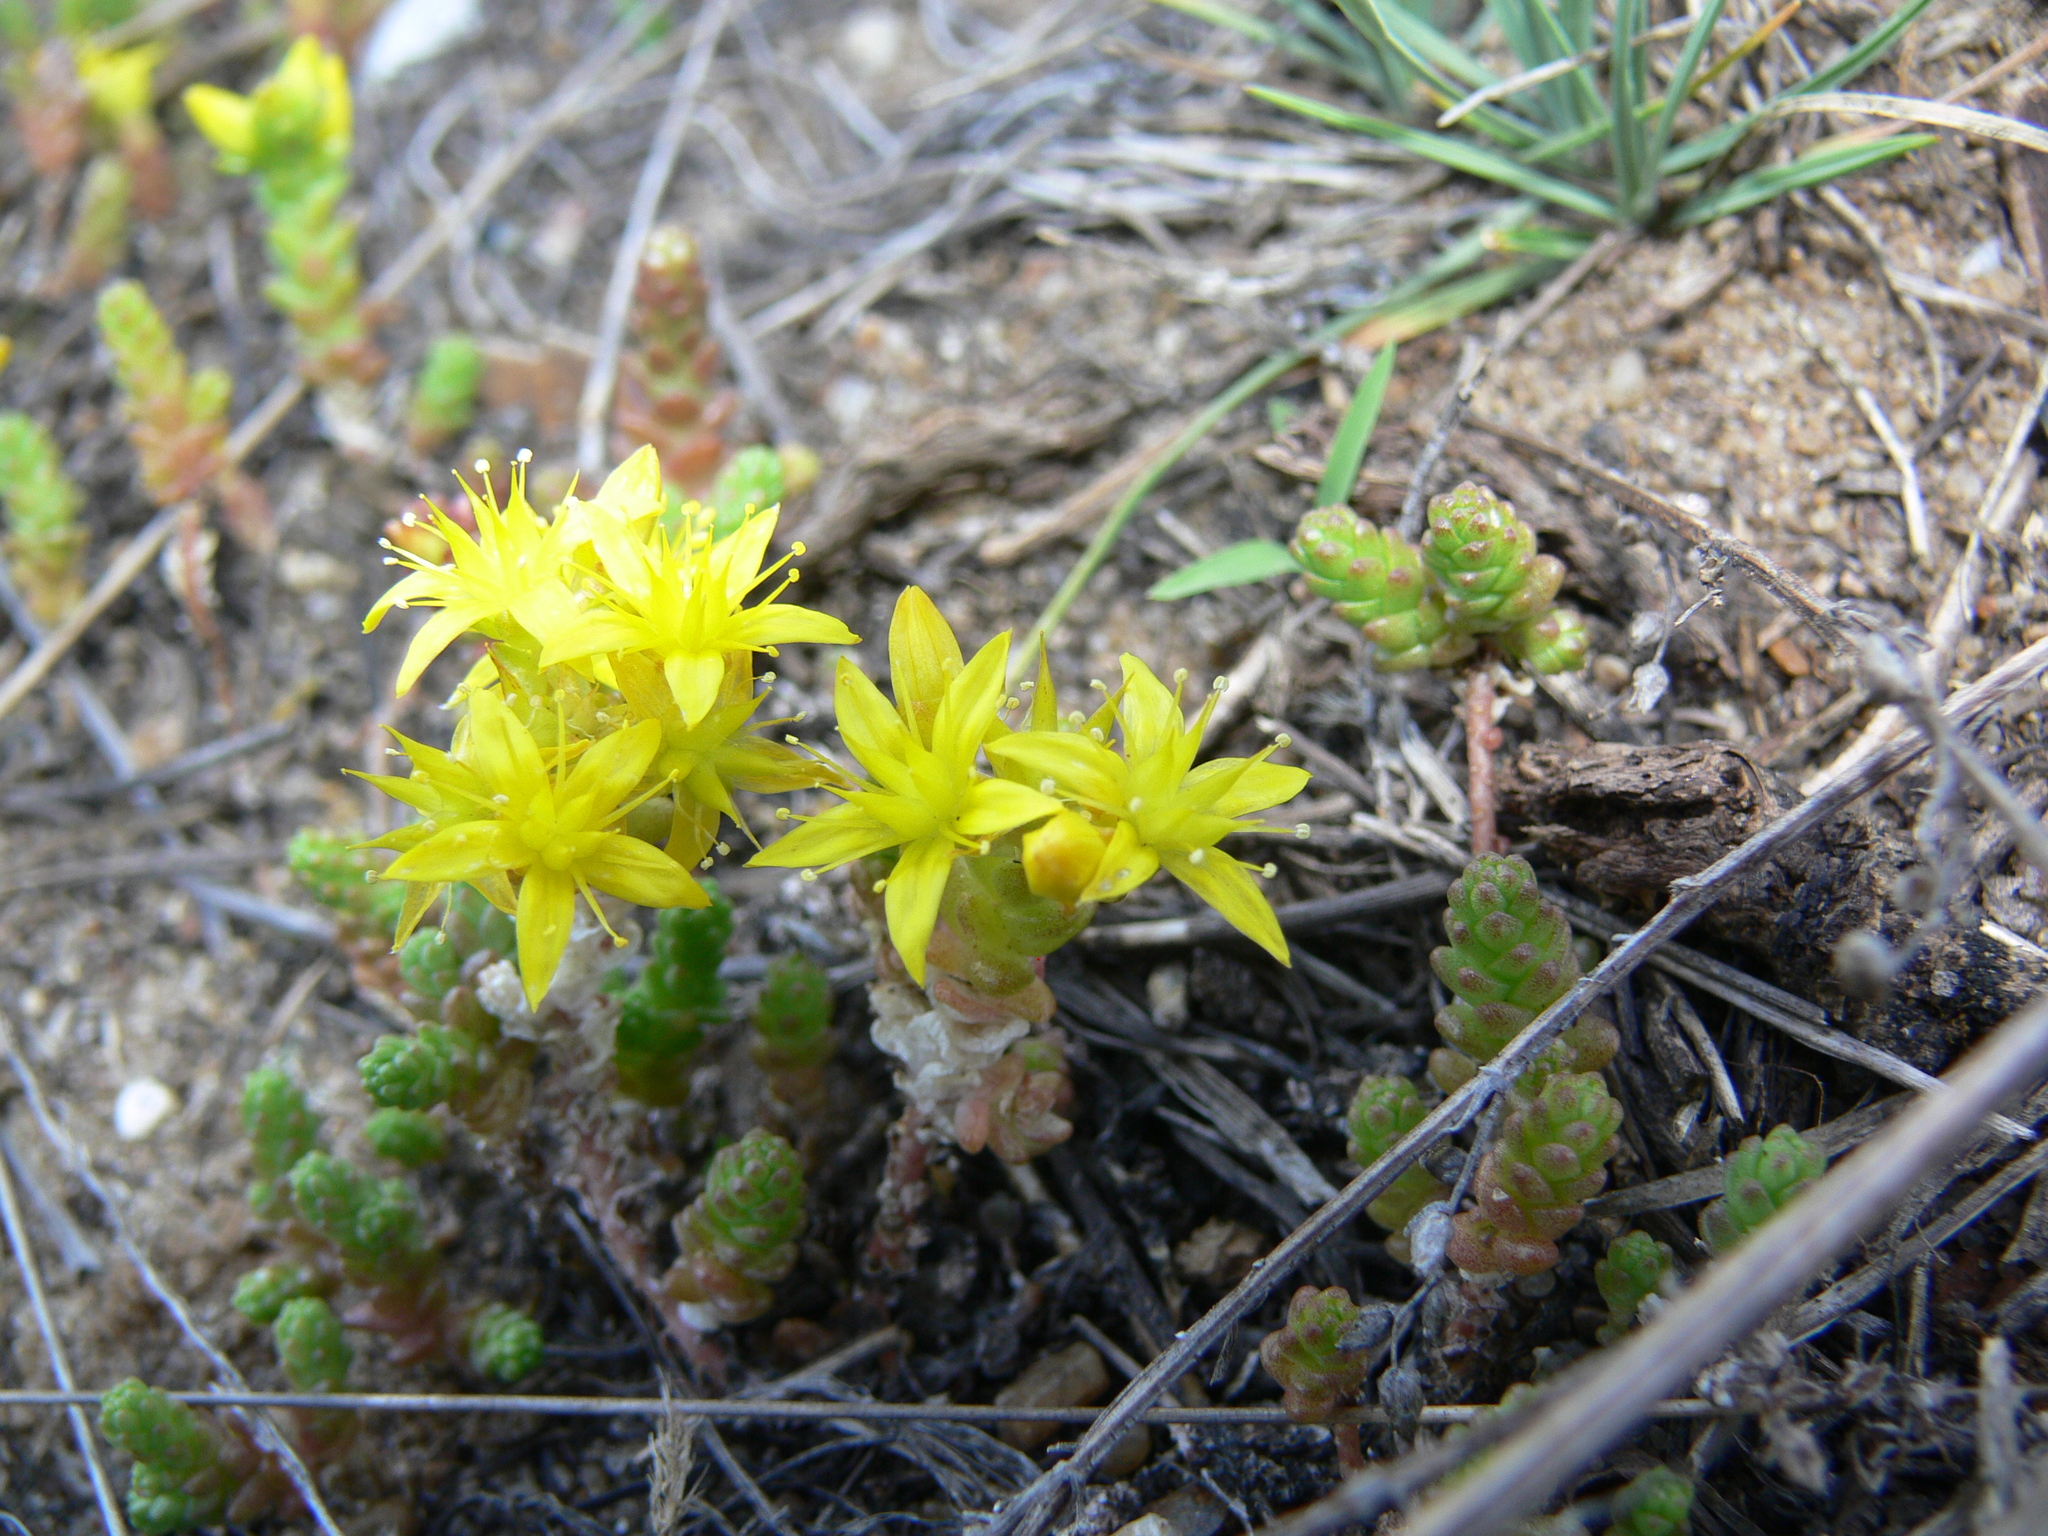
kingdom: Plantae
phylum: Tracheophyta
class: Magnoliopsida
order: Saxifragales
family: Crassulaceae
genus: Sedum
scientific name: Sedum acre
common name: Biting stonecrop
